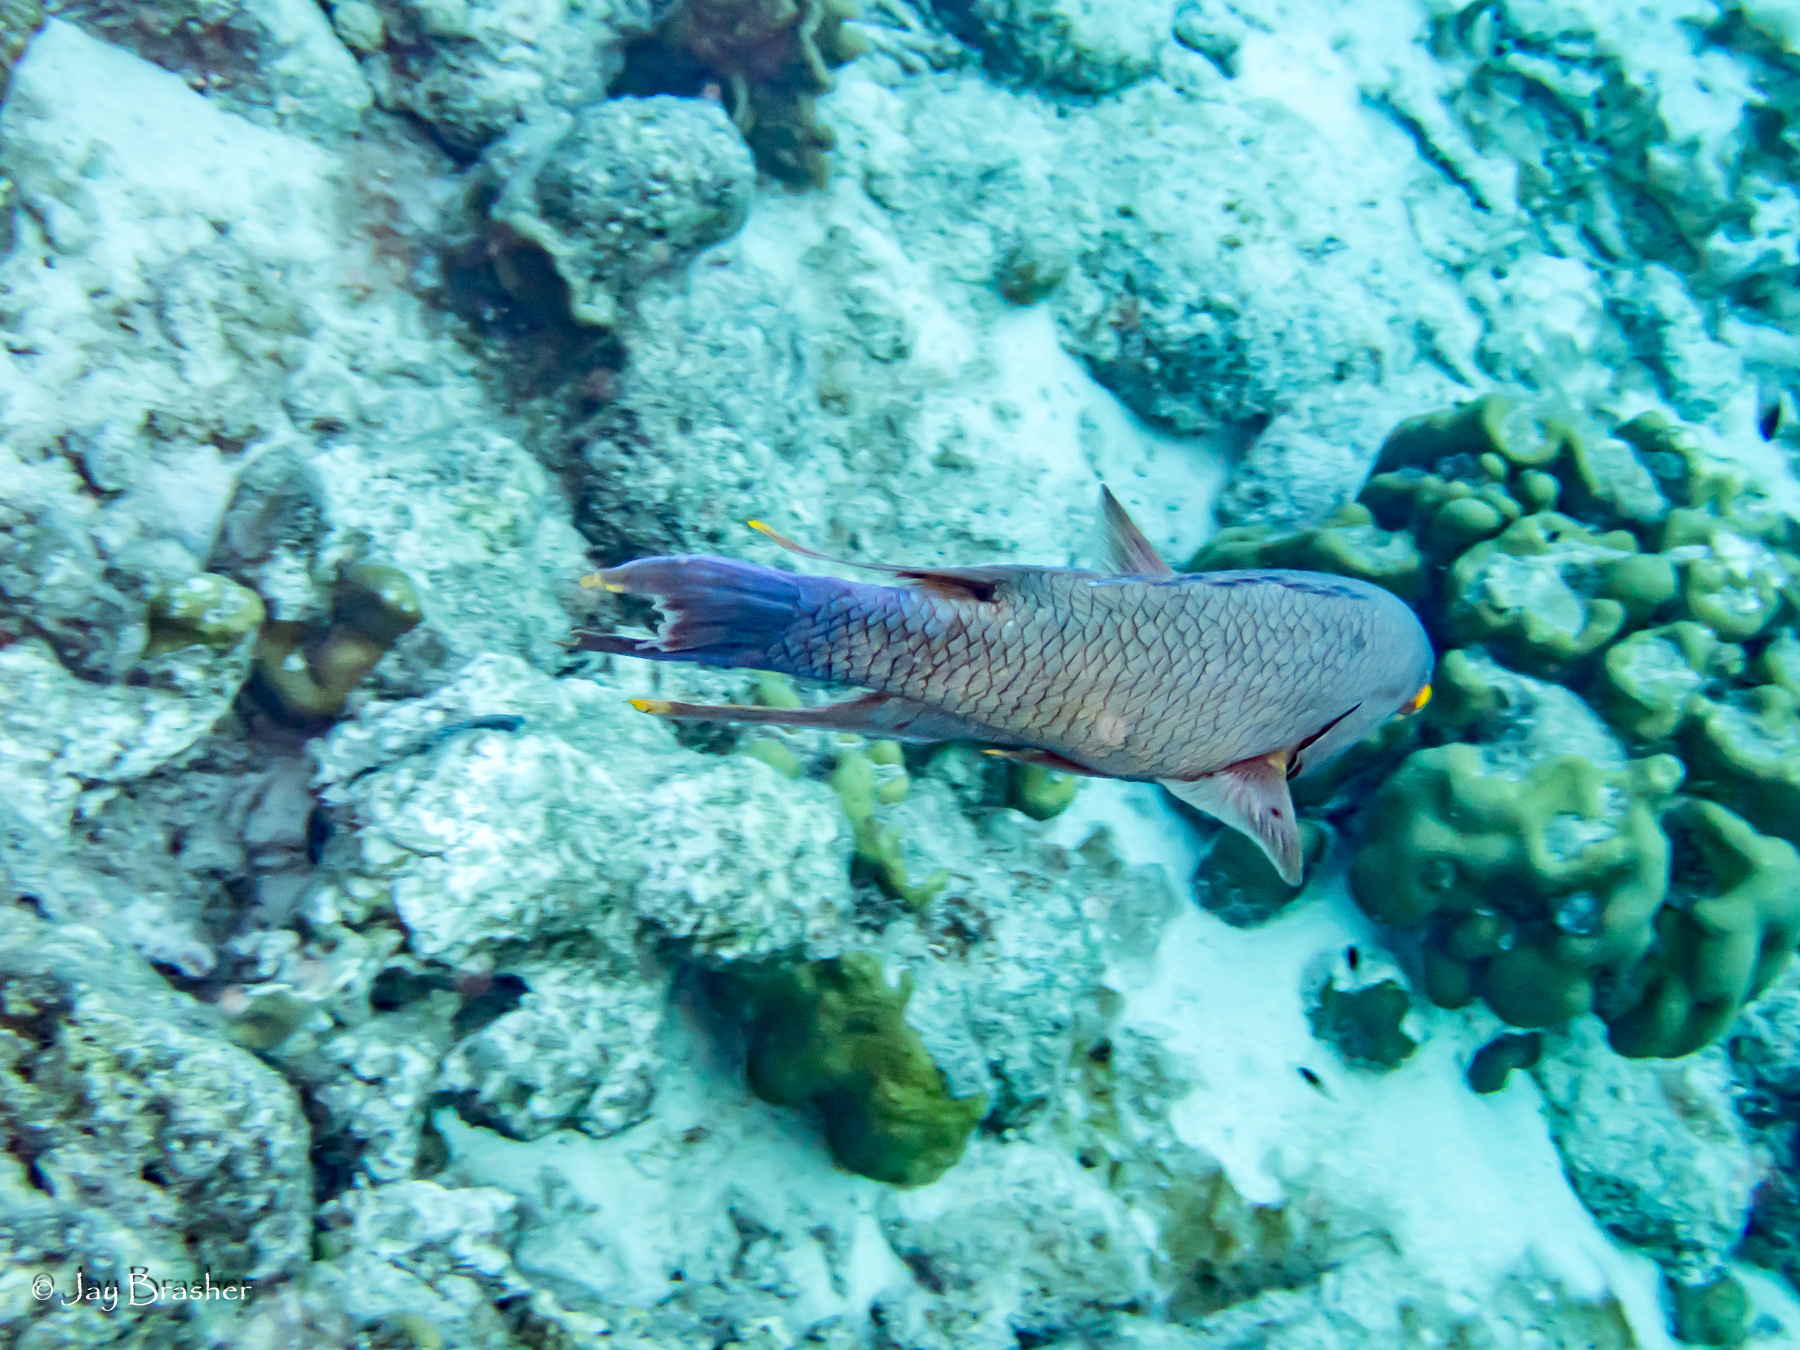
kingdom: Animalia
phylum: Chordata
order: Perciformes
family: Labridae
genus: Bodianus
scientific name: Bodianus rufus
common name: Spanish hogfish
